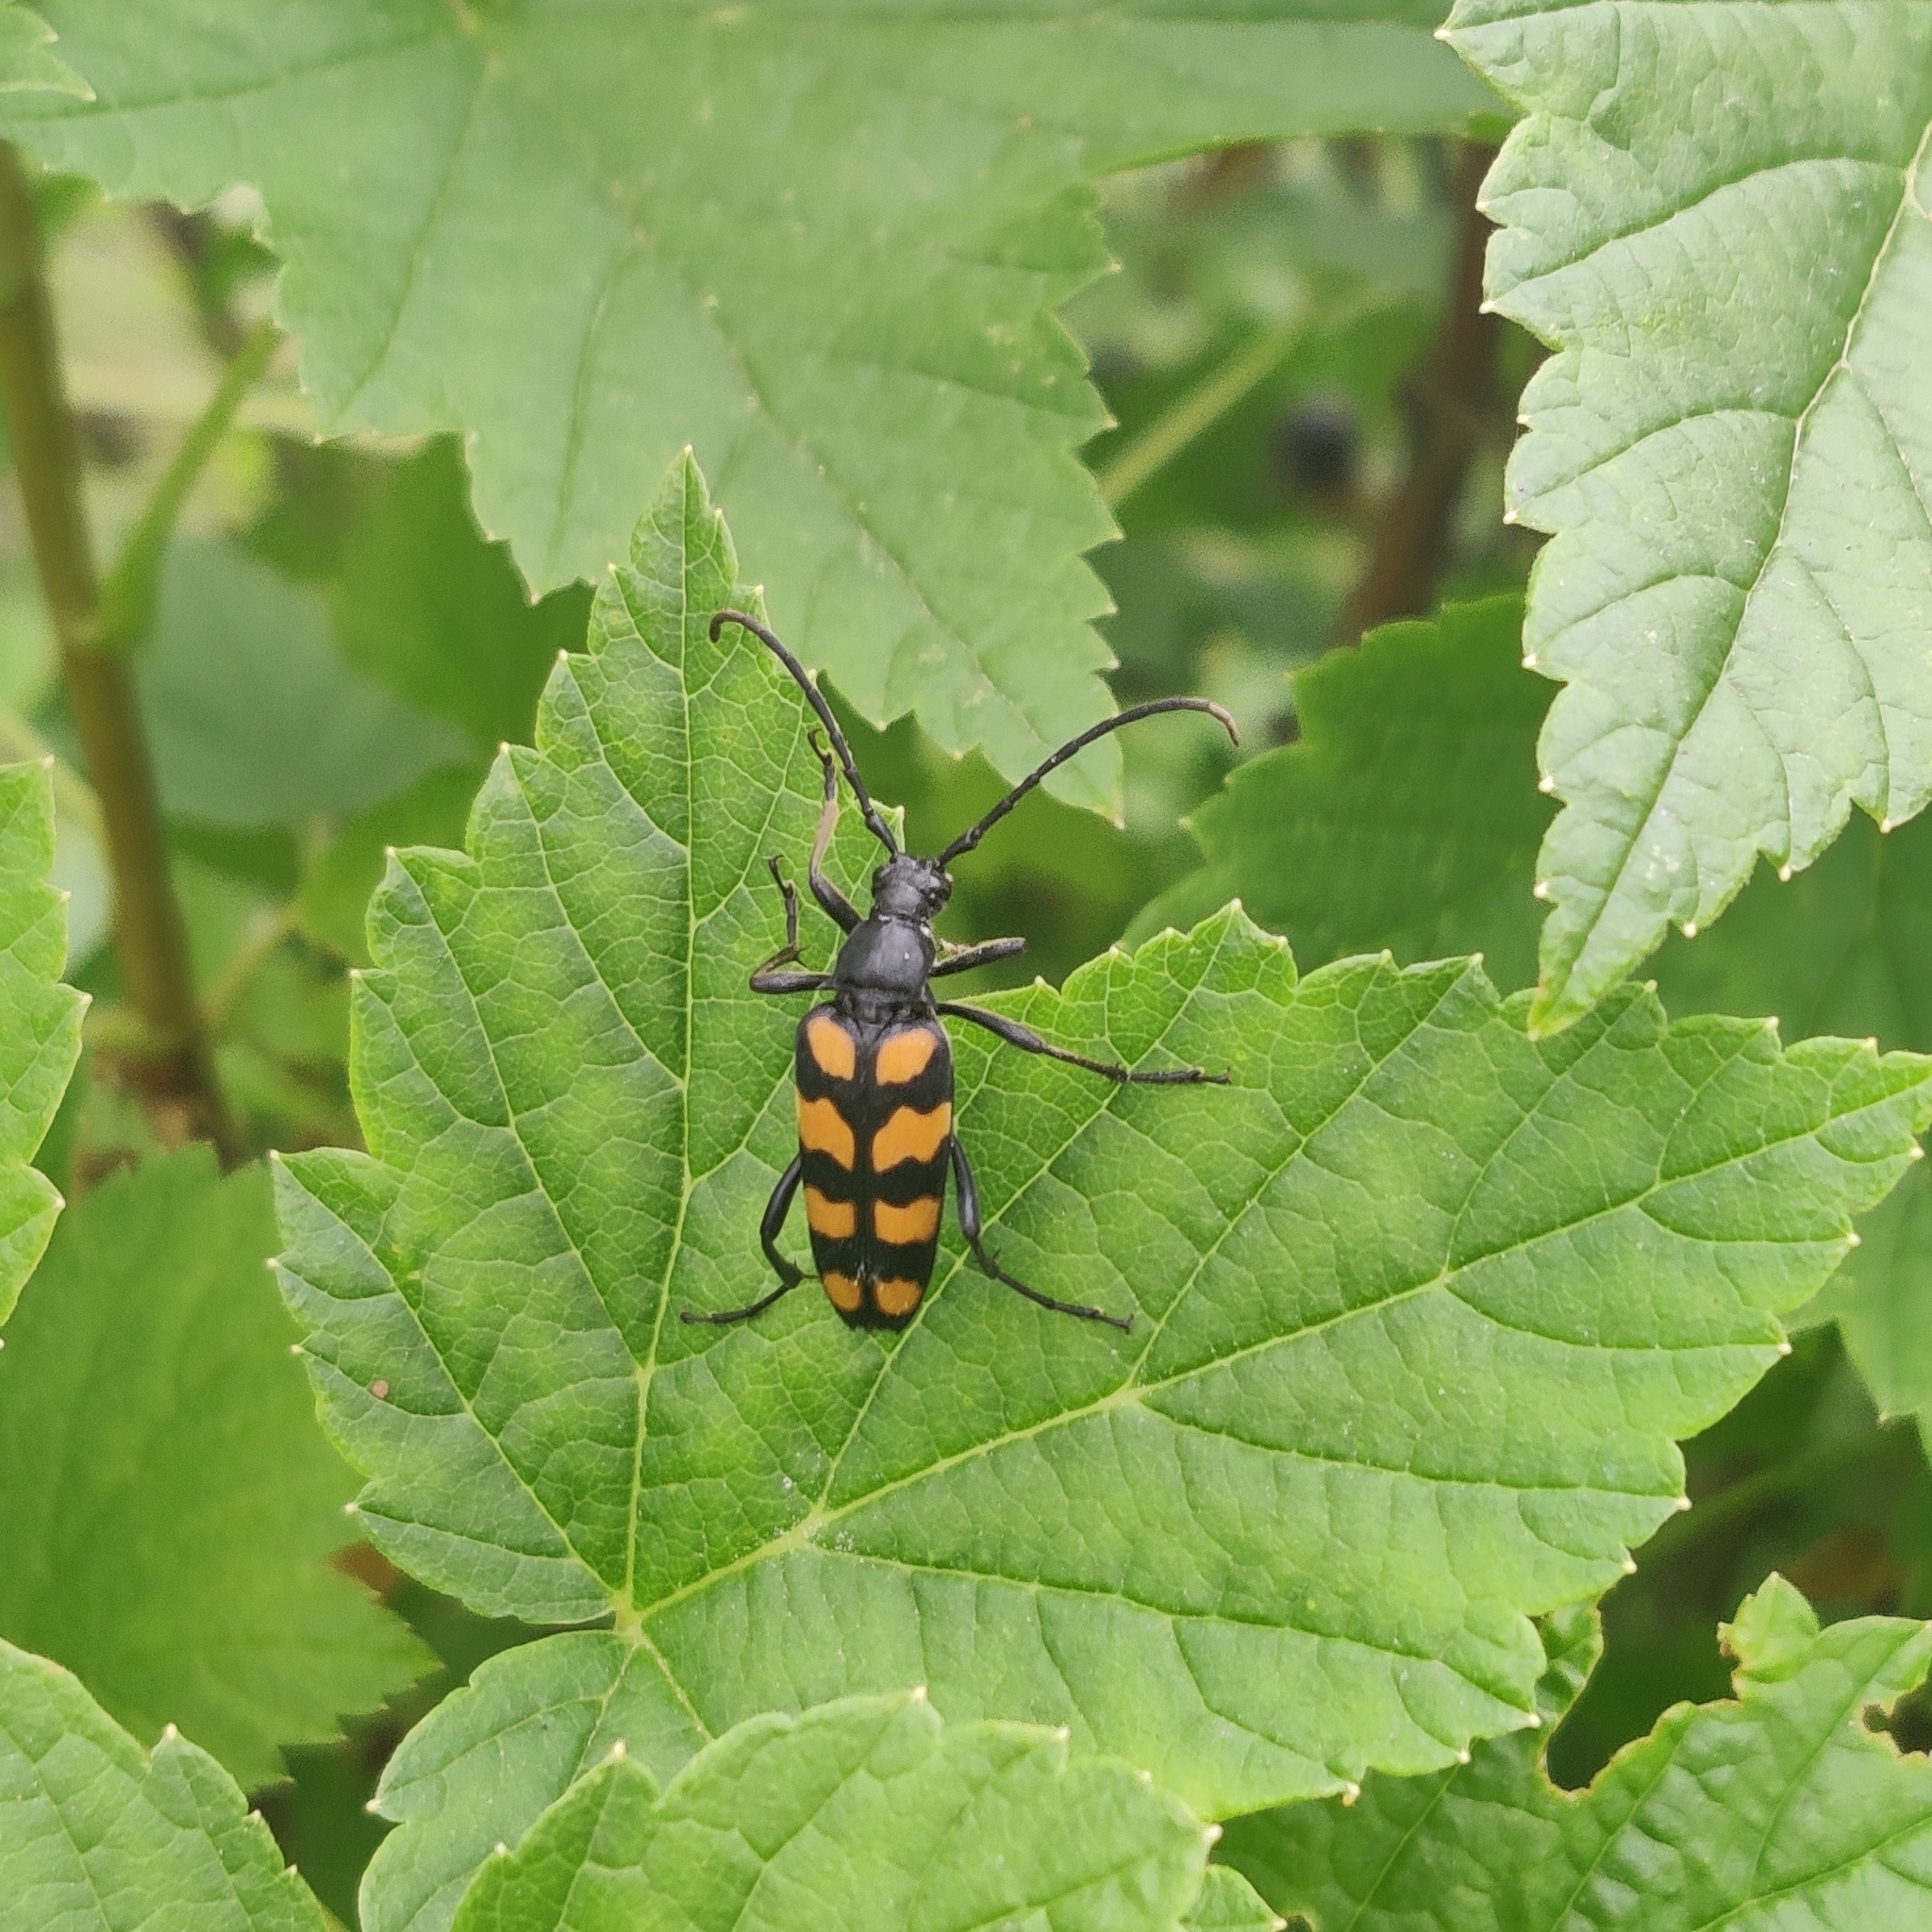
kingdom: Animalia
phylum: Arthropoda
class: Insecta
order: Coleoptera
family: Cerambycidae
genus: Leptura
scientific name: Leptura quadrifasciata
